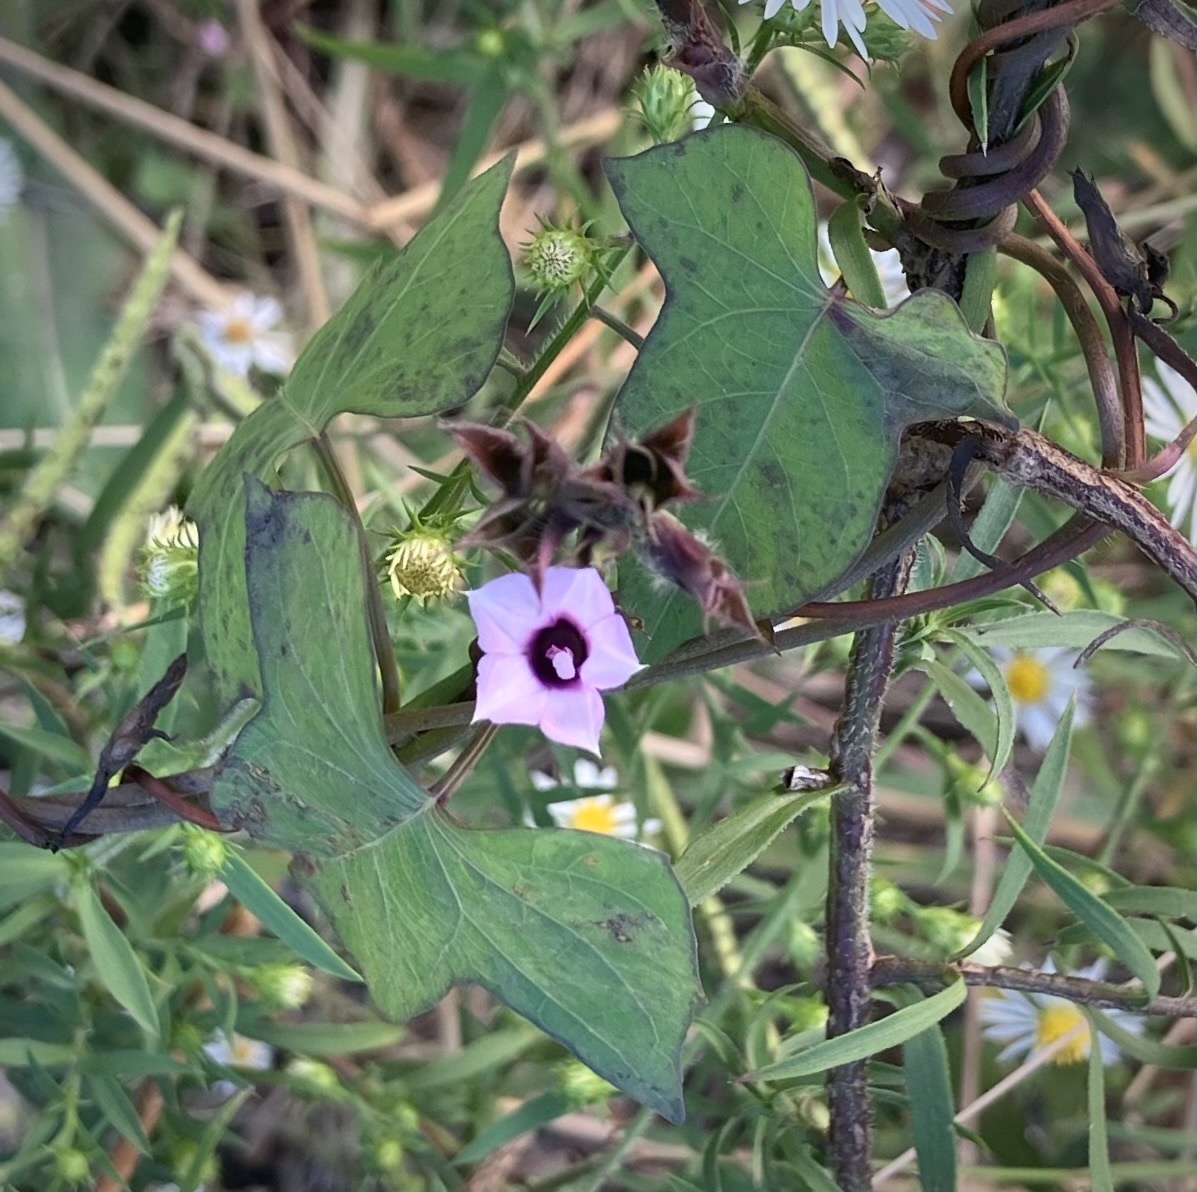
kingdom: Plantae
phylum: Tracheophyta
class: Magnoliopsida
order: Solanales
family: Convolvulaceae
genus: Ipomoea
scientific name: Ipomoea triloba
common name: Little-bell
